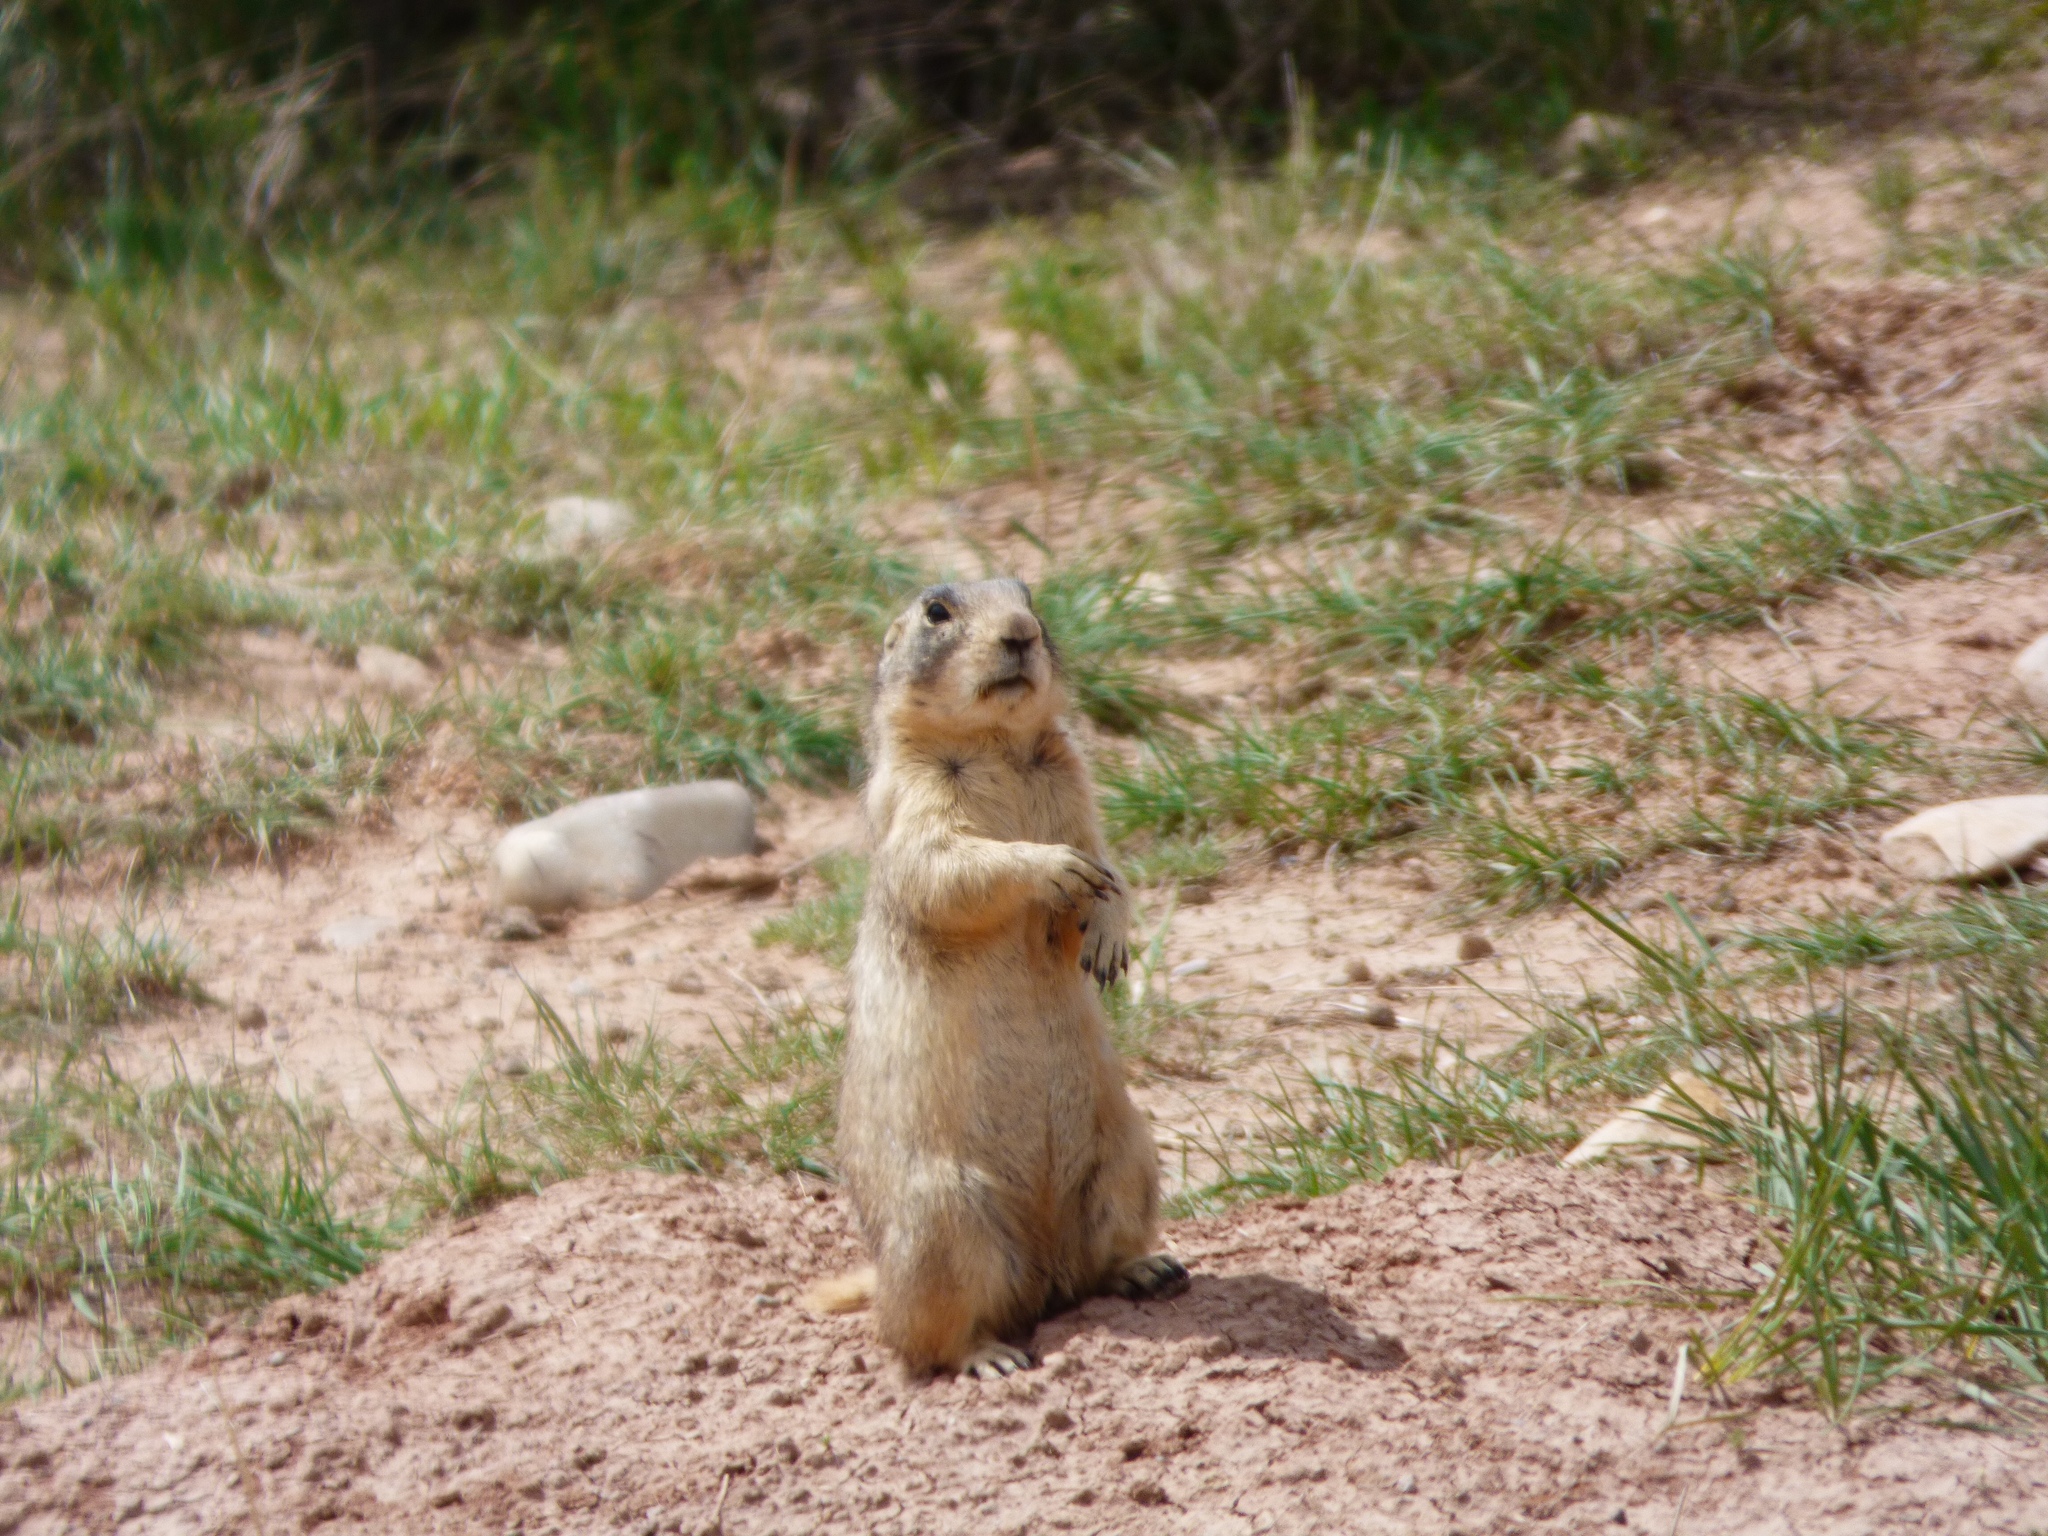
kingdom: Animalia
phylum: Chordata
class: Mammalia
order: Rodentia
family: Sciuridae
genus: Cynomys
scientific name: Cynomys leucurus
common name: White-tailed prairie dog
